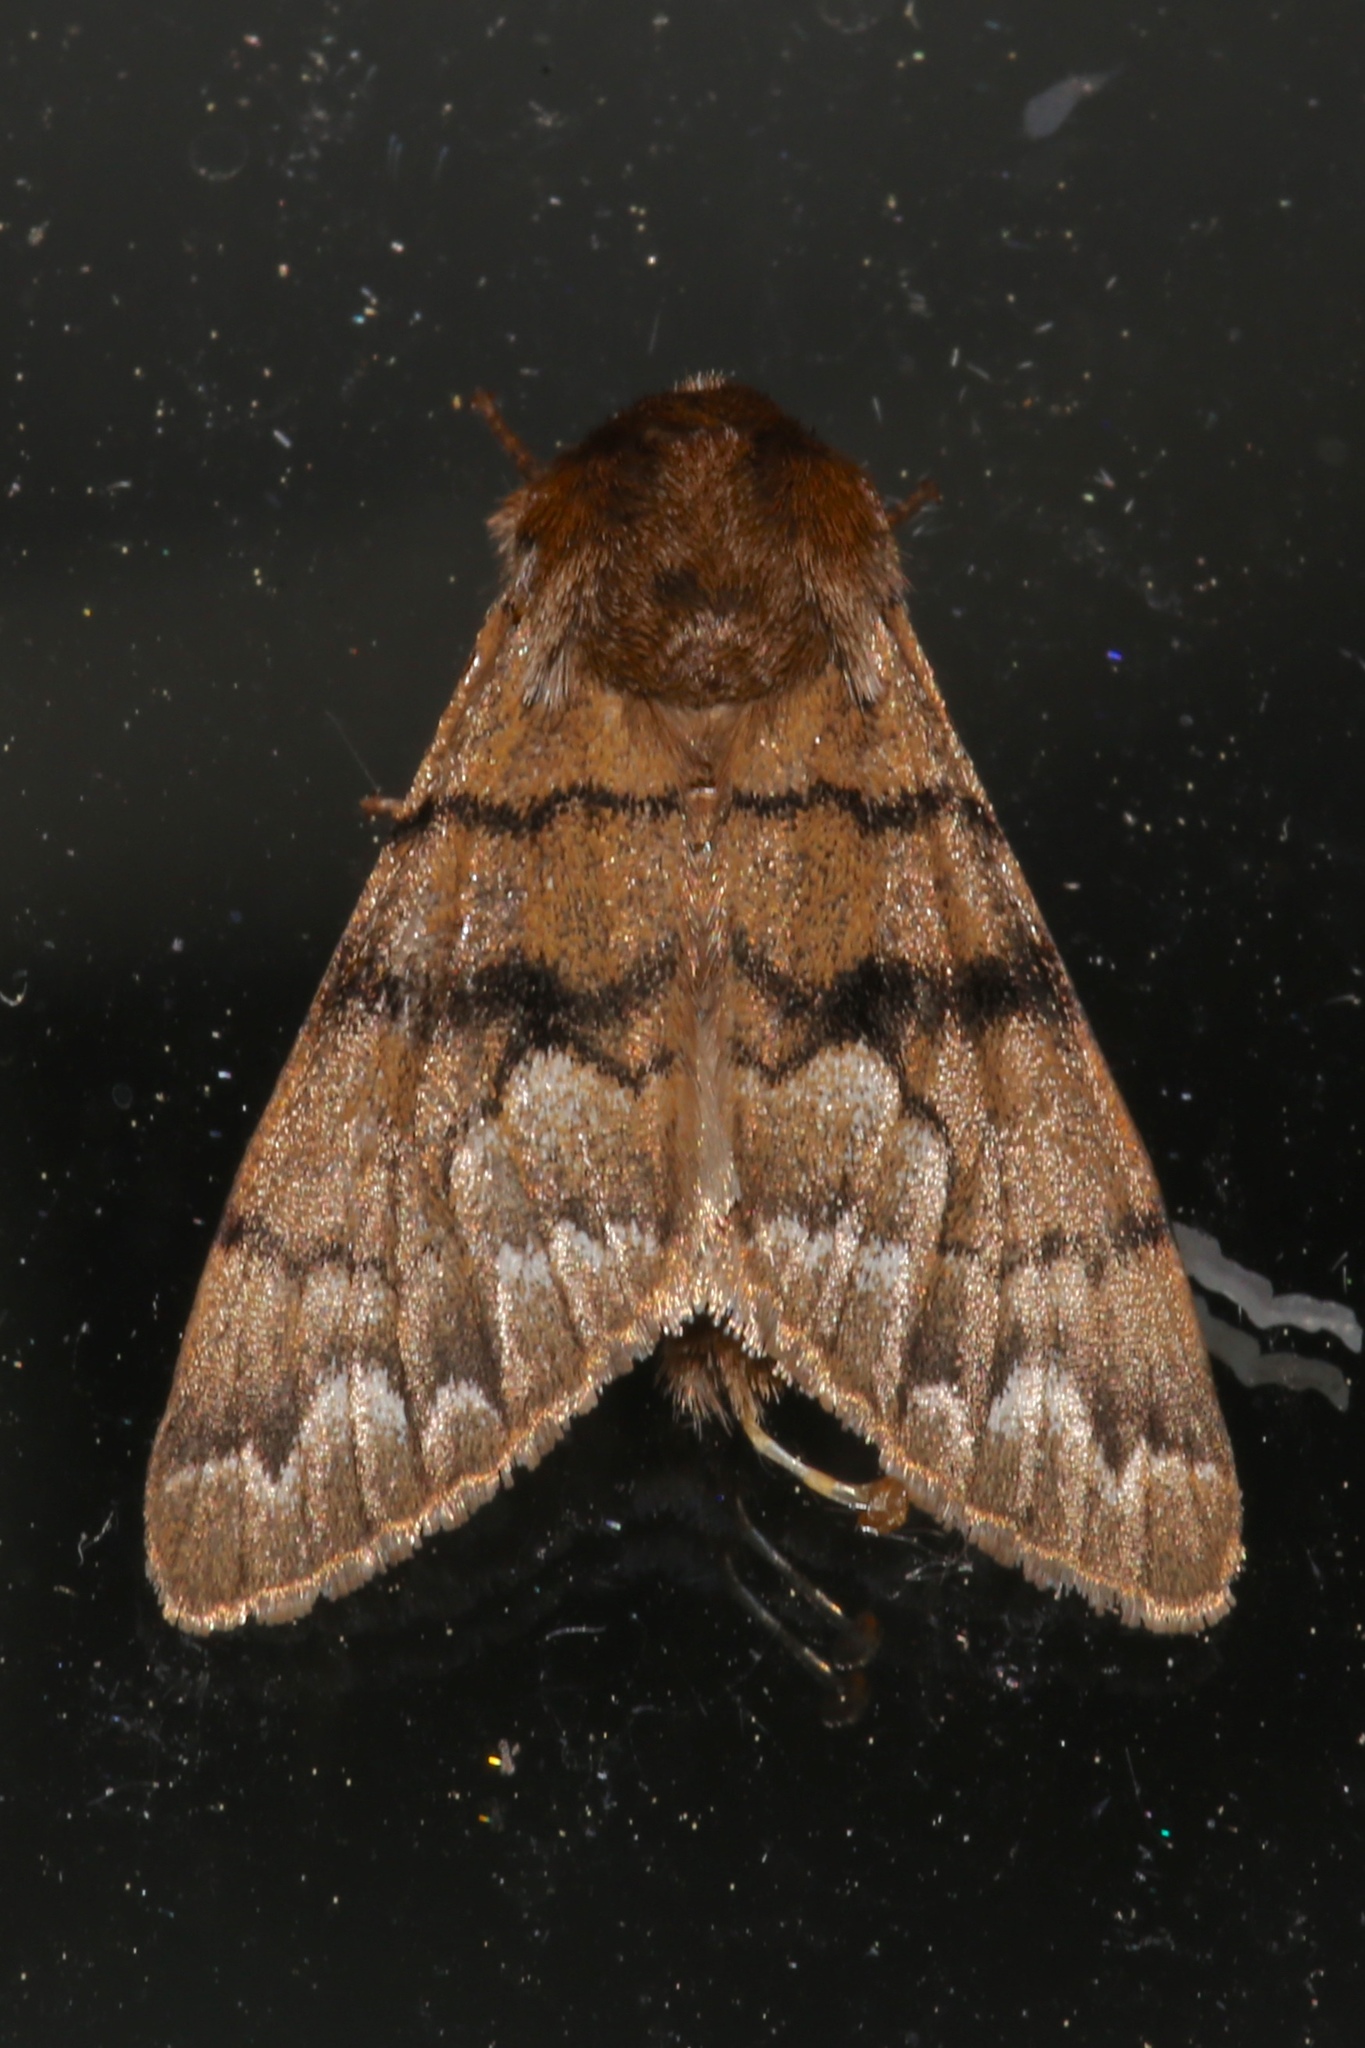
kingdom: Animalia
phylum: Arthropoda
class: Insecta
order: Lepidoptera
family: Noctuidae
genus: Panthea
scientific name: Panthea furcilla
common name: Eastern panthea moth
